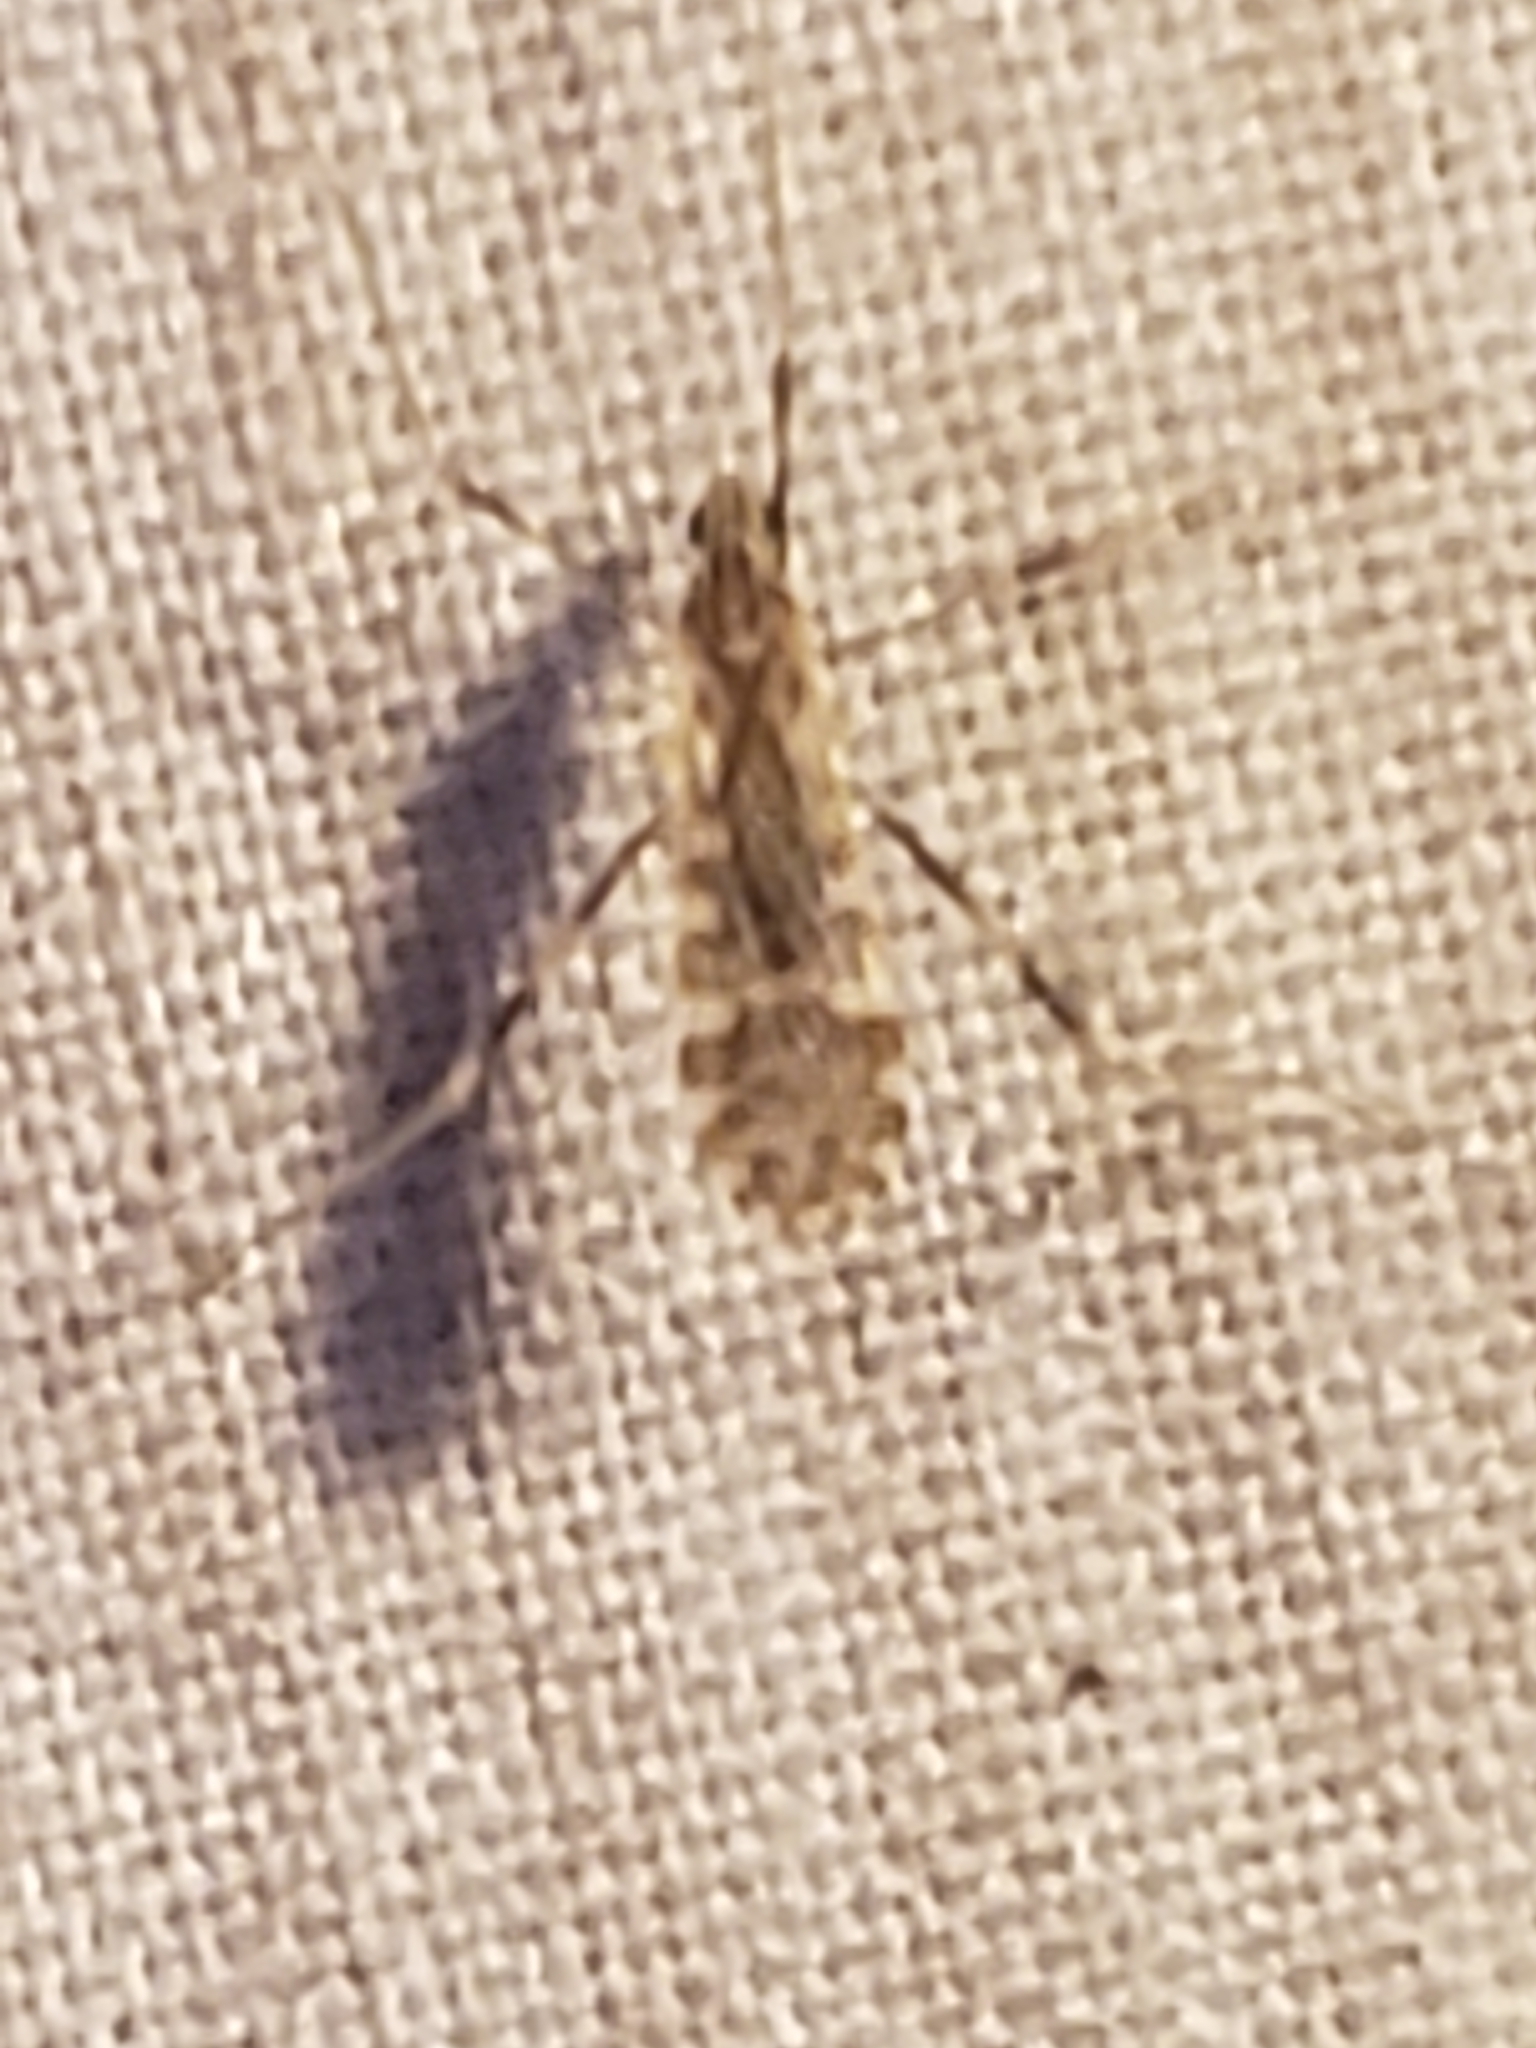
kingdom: Animalia
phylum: Arthropoda
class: Insecta
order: Diptera
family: Limoniidae
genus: Erioptera
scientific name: Erioptera caliptera
